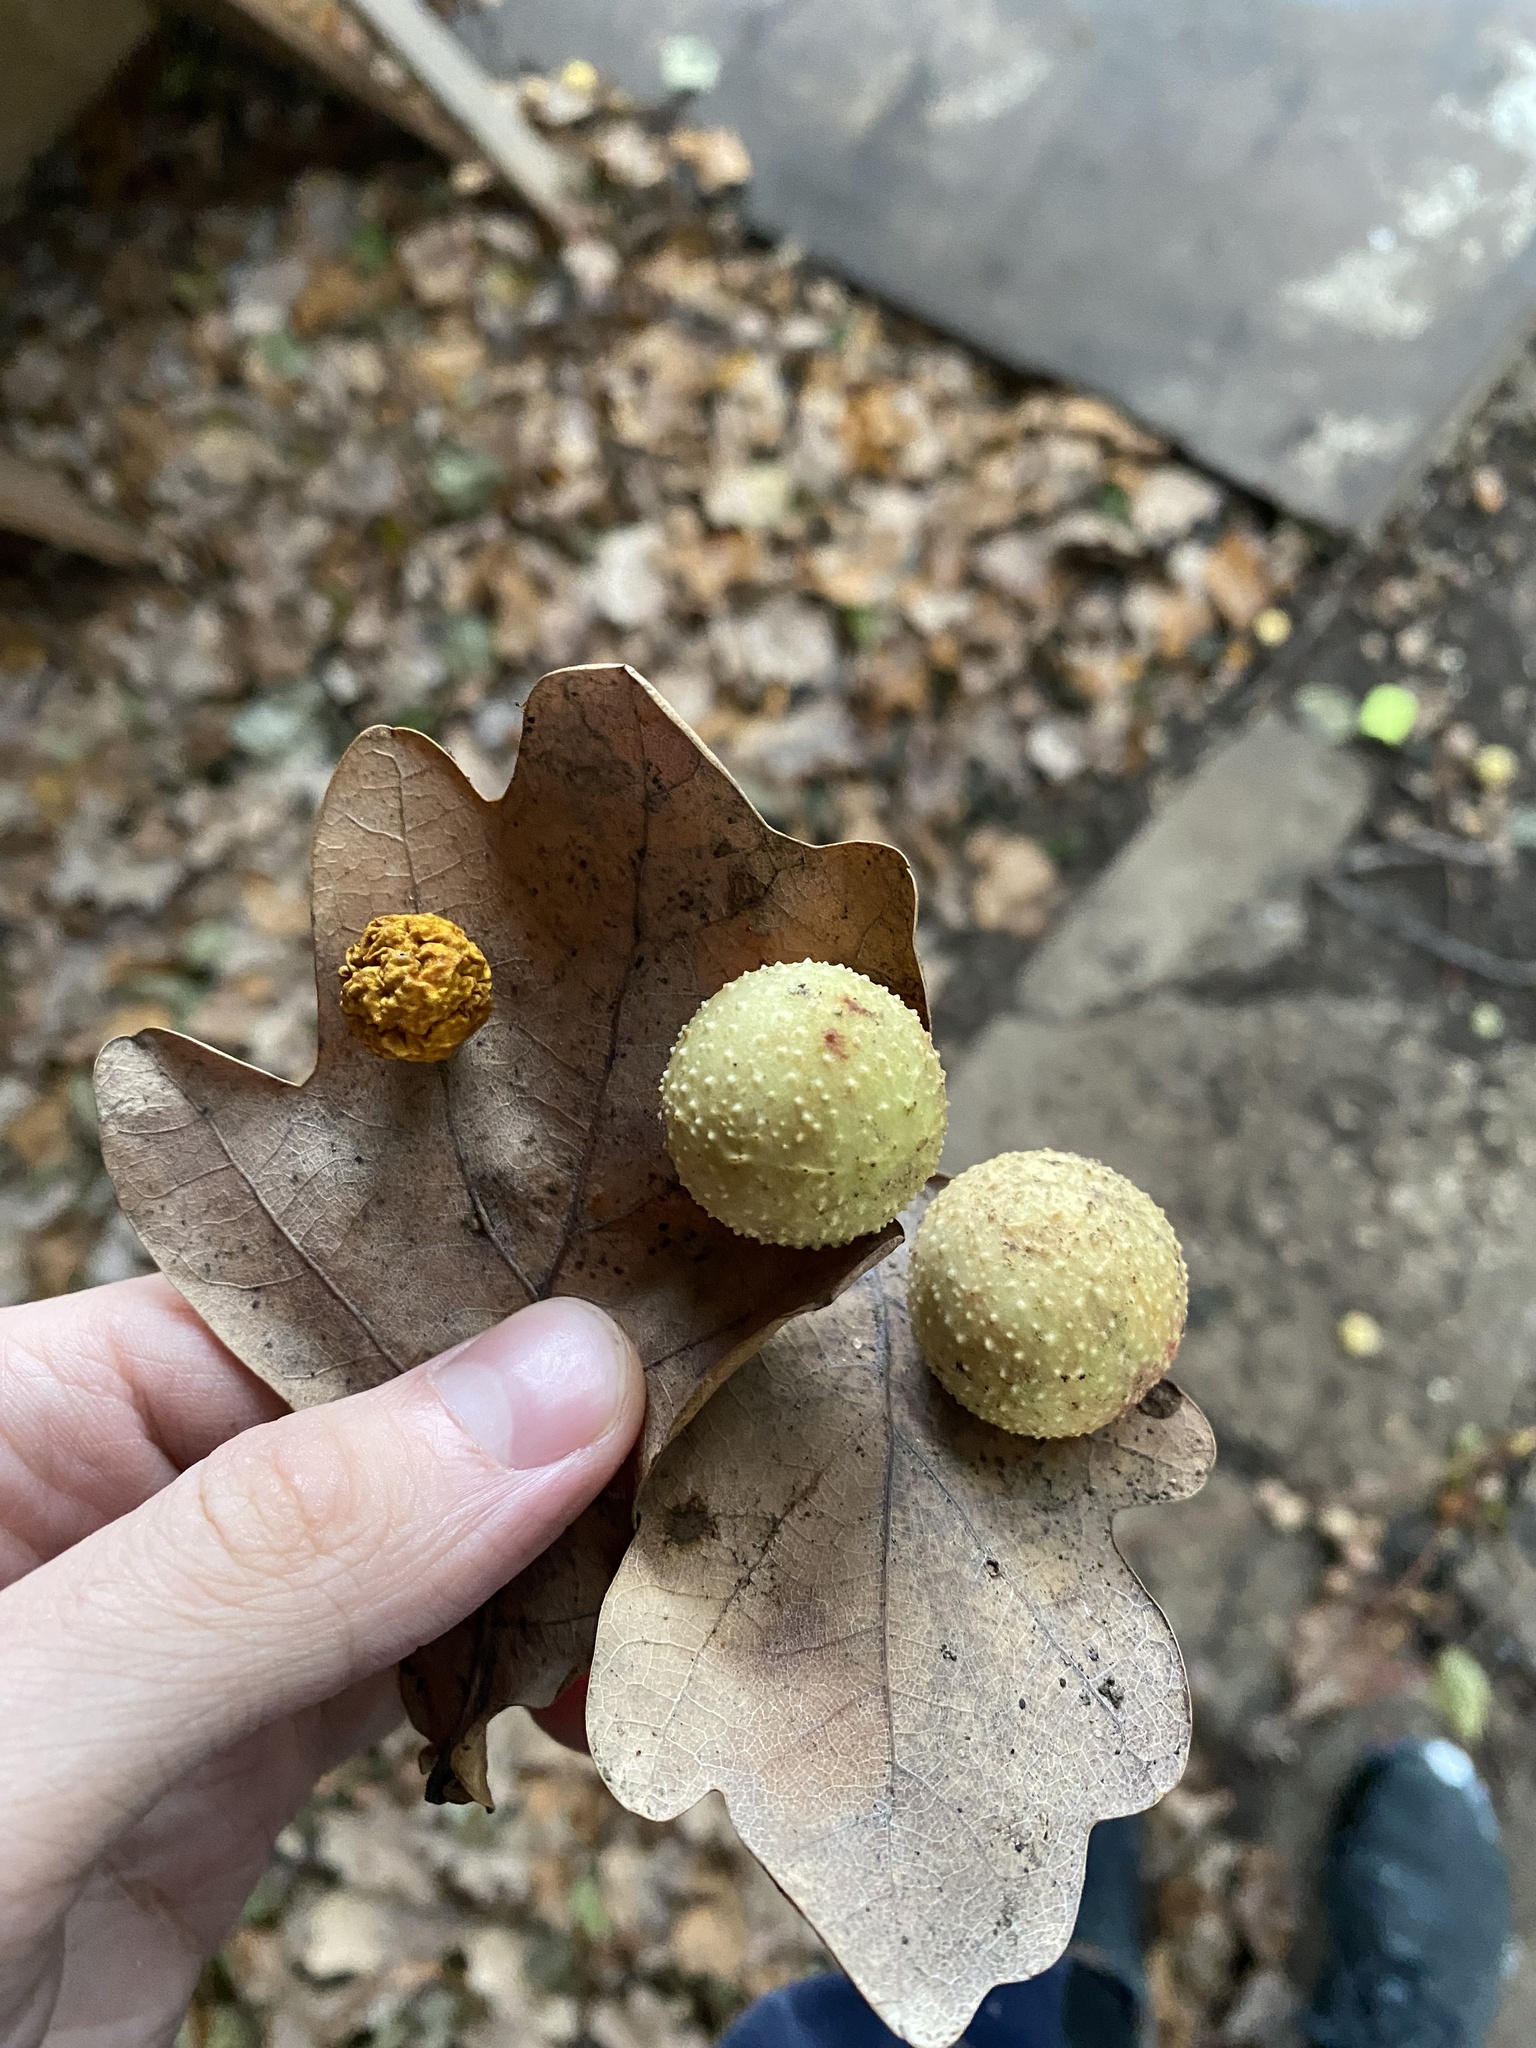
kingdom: Animalia
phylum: Arthropoda
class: Insecta
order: Hymenoptera
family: Cynipidae
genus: Cynips
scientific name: Cynips quercusfolii
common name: Cherry gall
